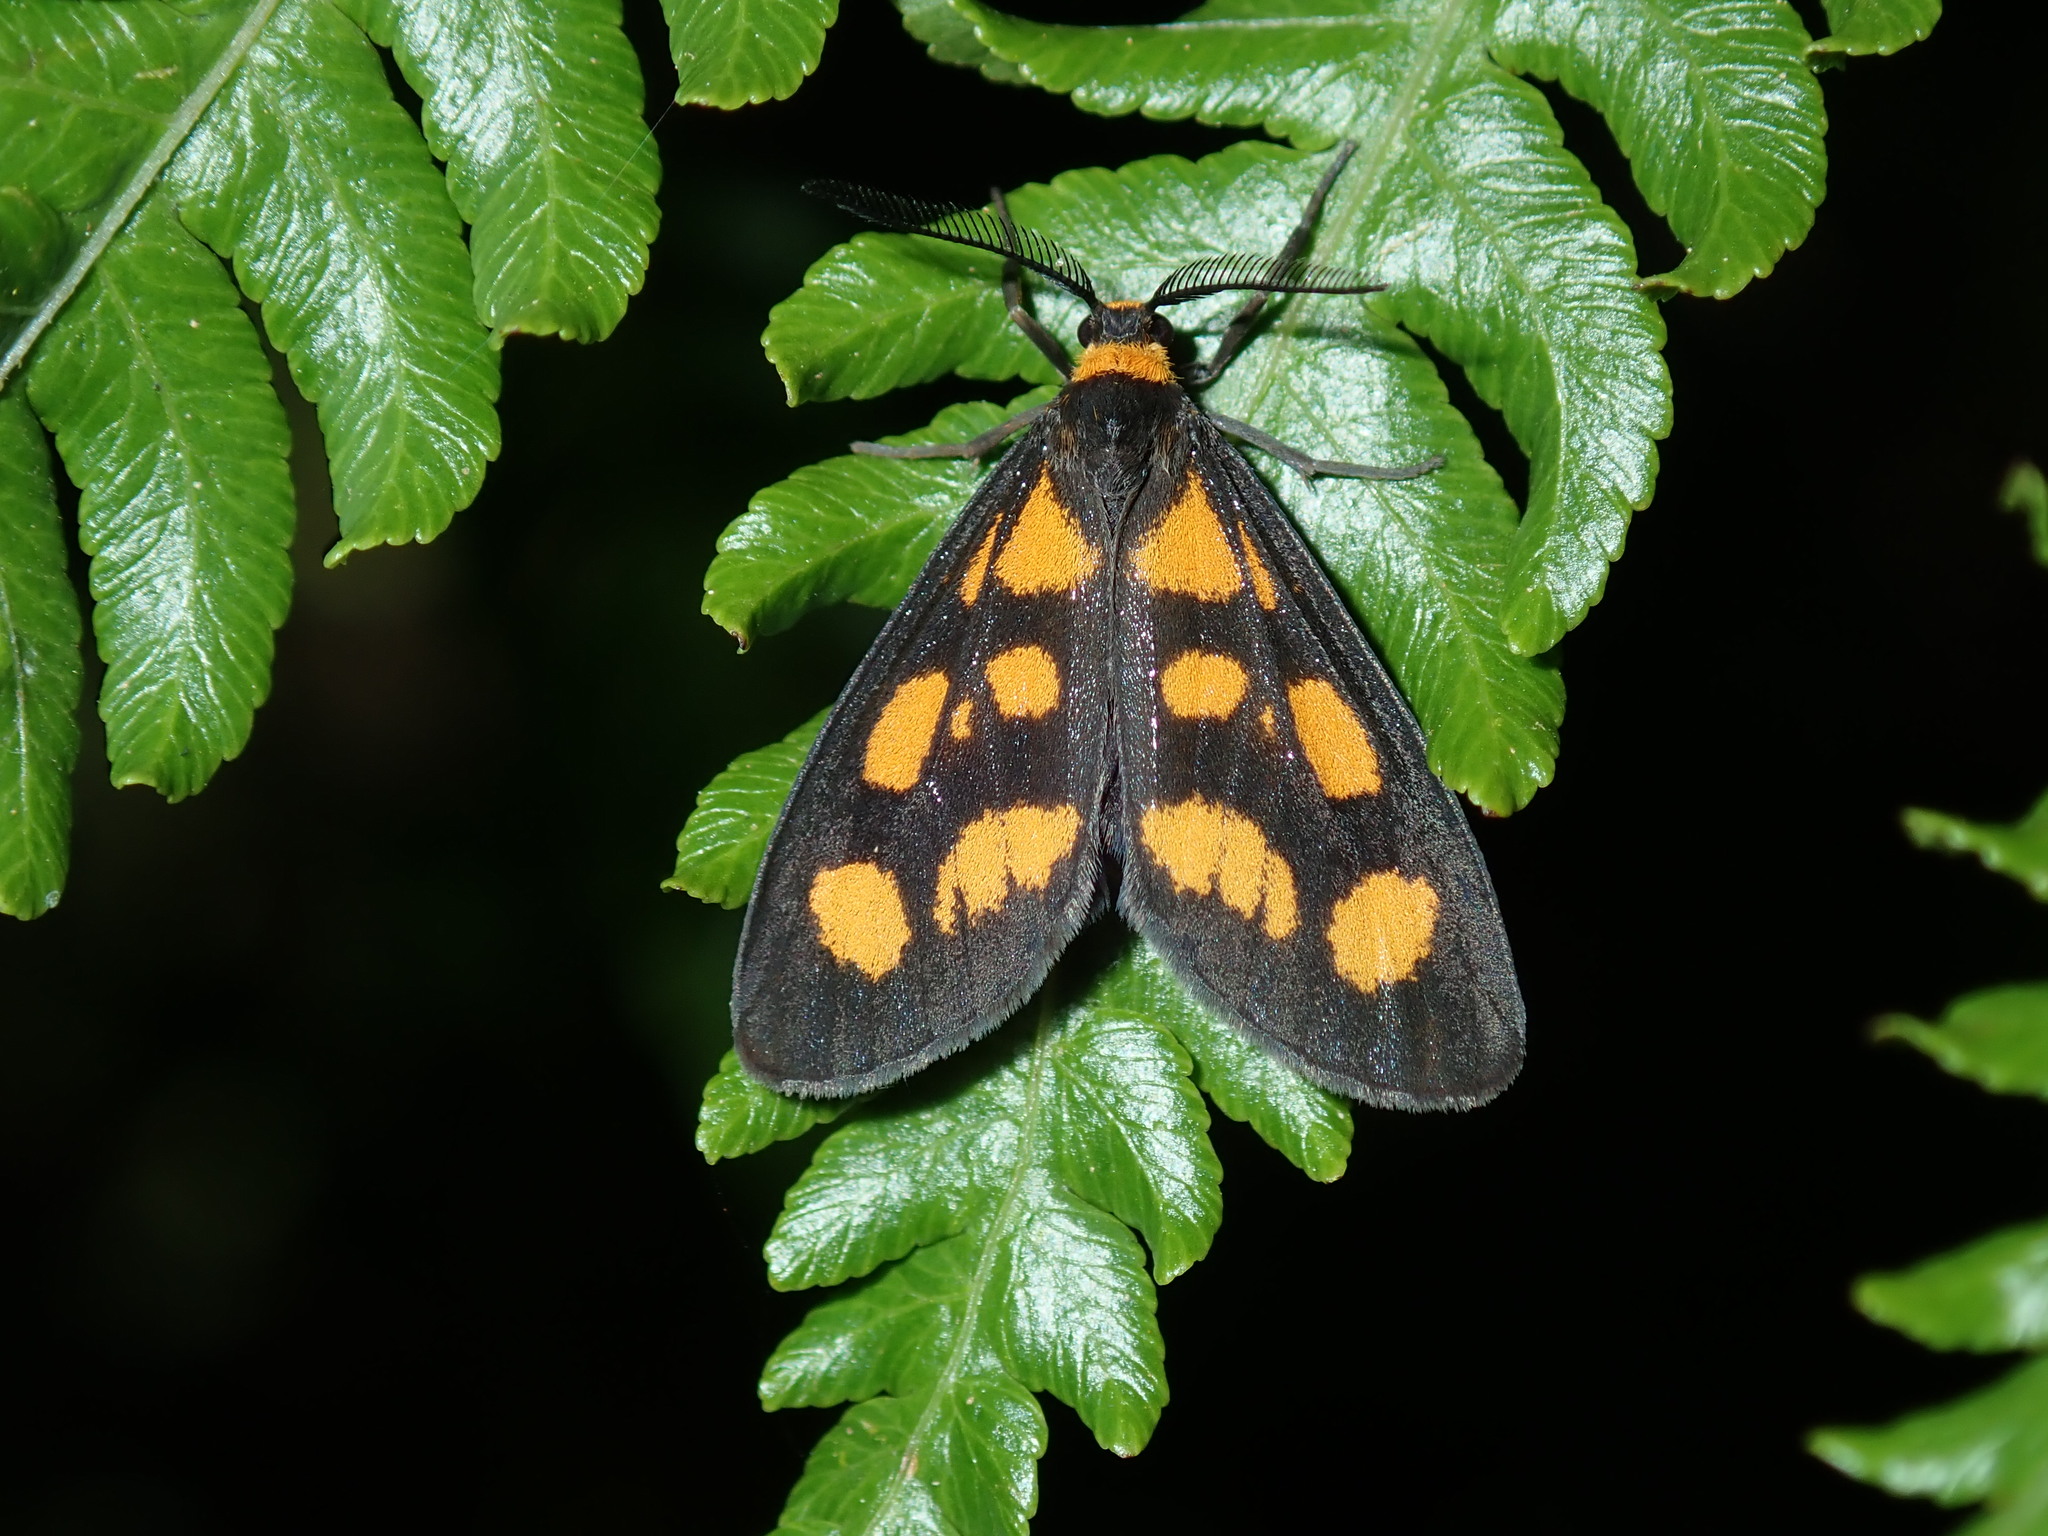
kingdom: Animalia
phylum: Arthropoda
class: Insecta
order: Lepidoptera
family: Erebidae
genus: Asura
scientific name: Asura cervicalis
